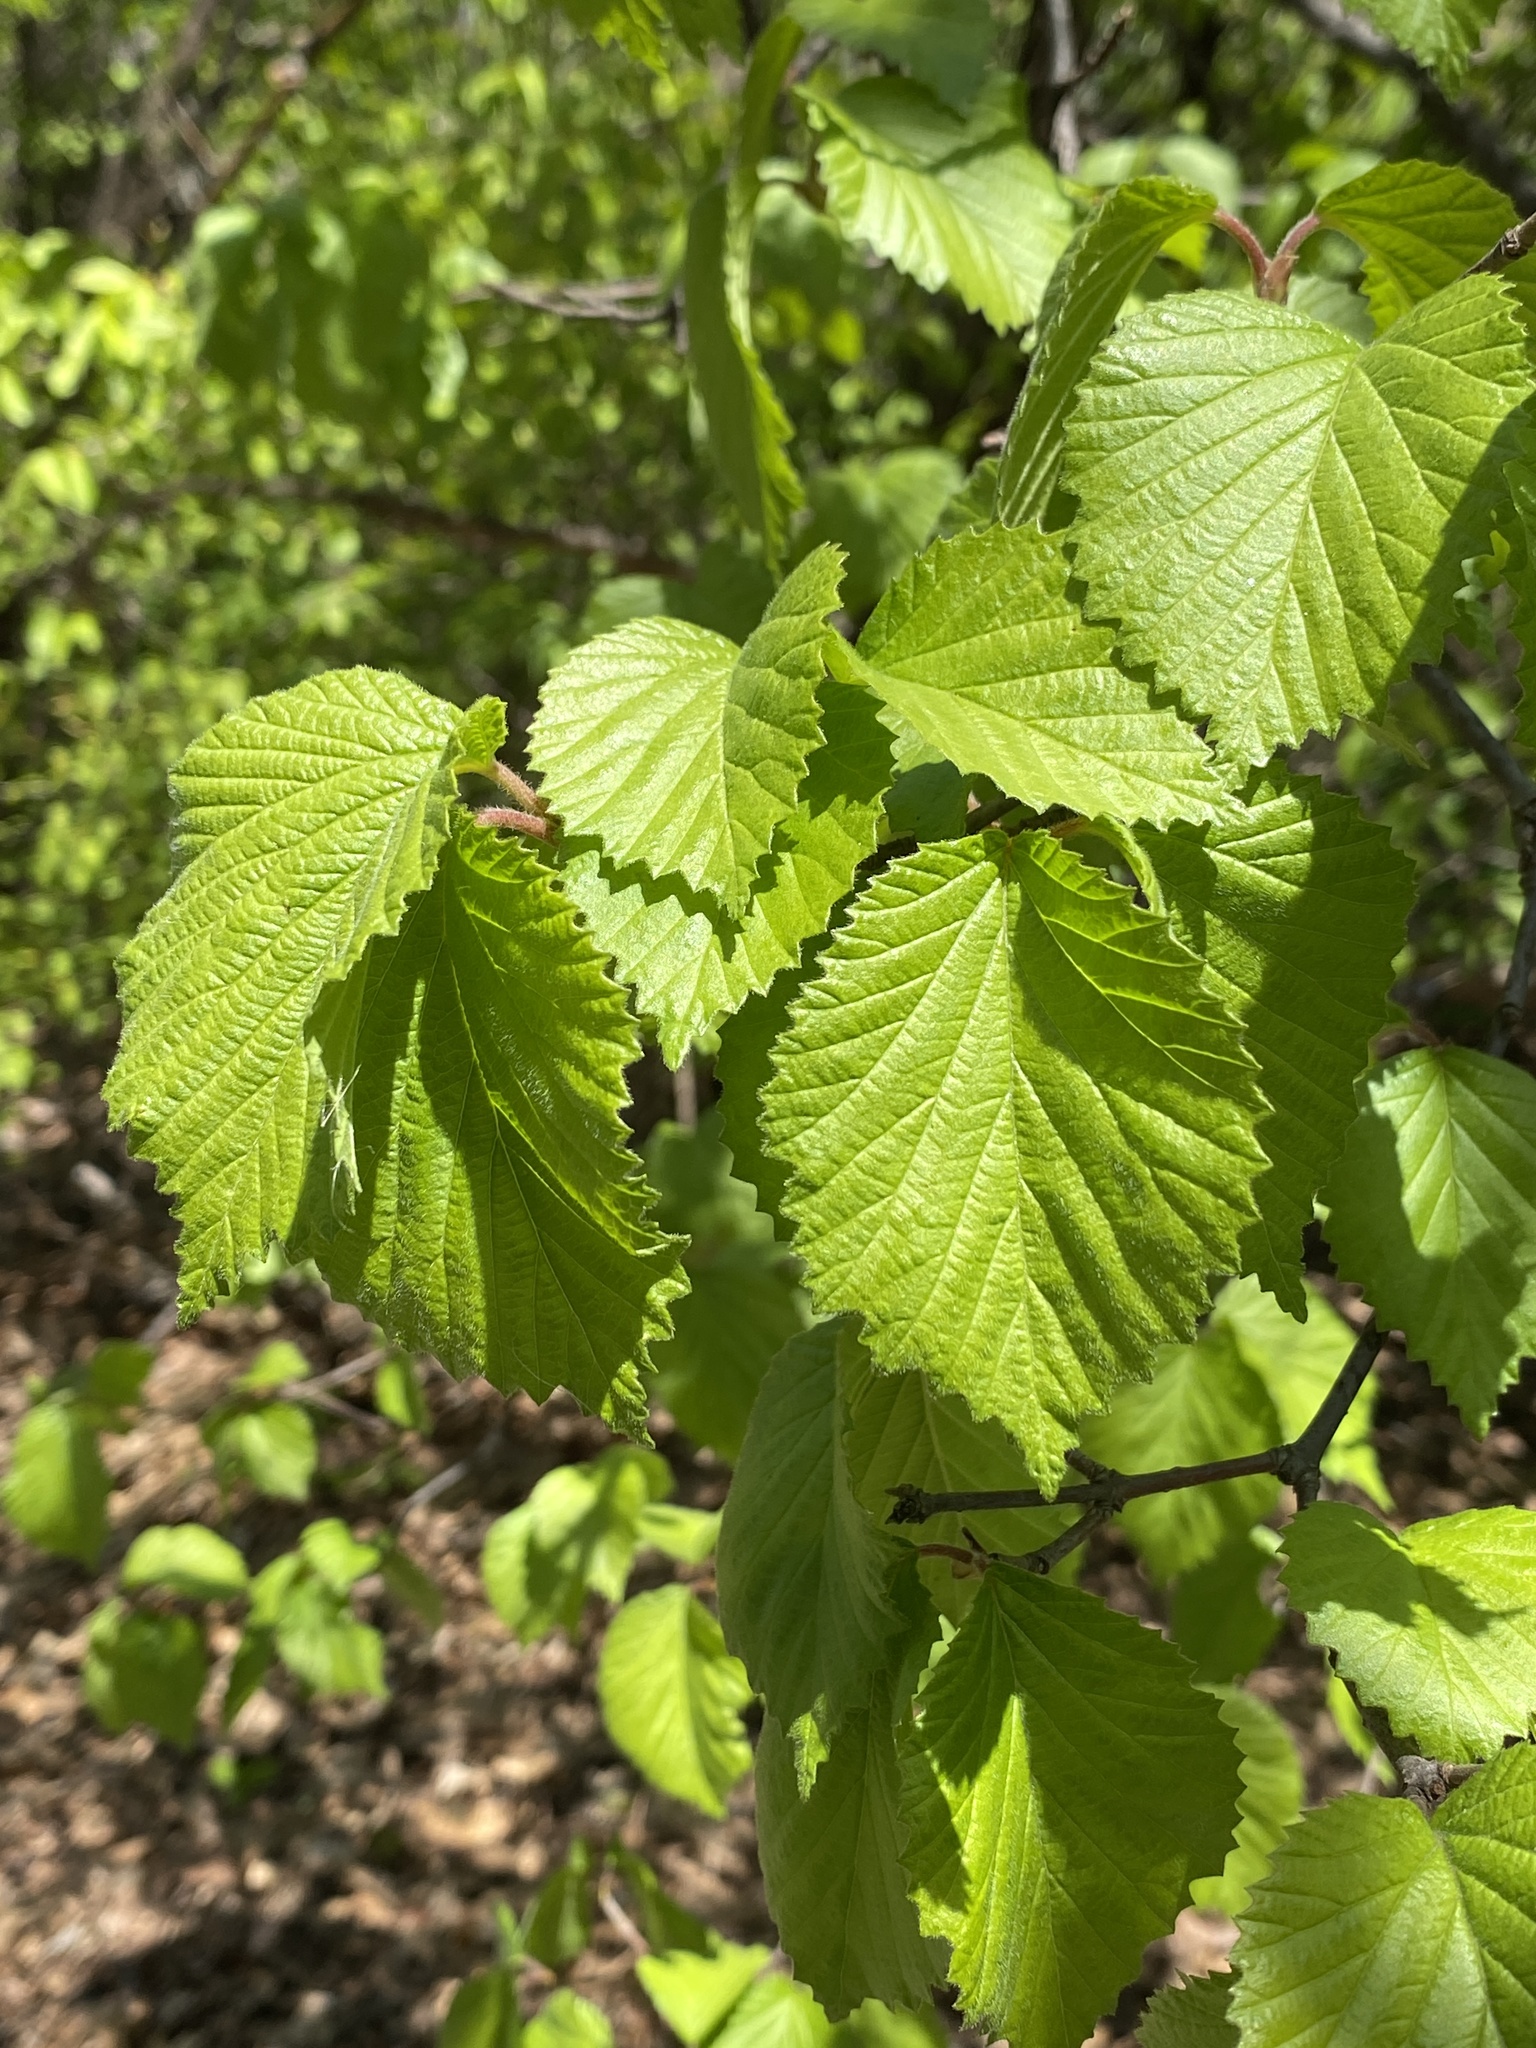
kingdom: Plantae
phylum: Tracheophyta
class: Magnoliopsida
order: Dipsacales
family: Viburnaceae
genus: Viburnum
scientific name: Viburnum dilatatum
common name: Linden arrowwood
